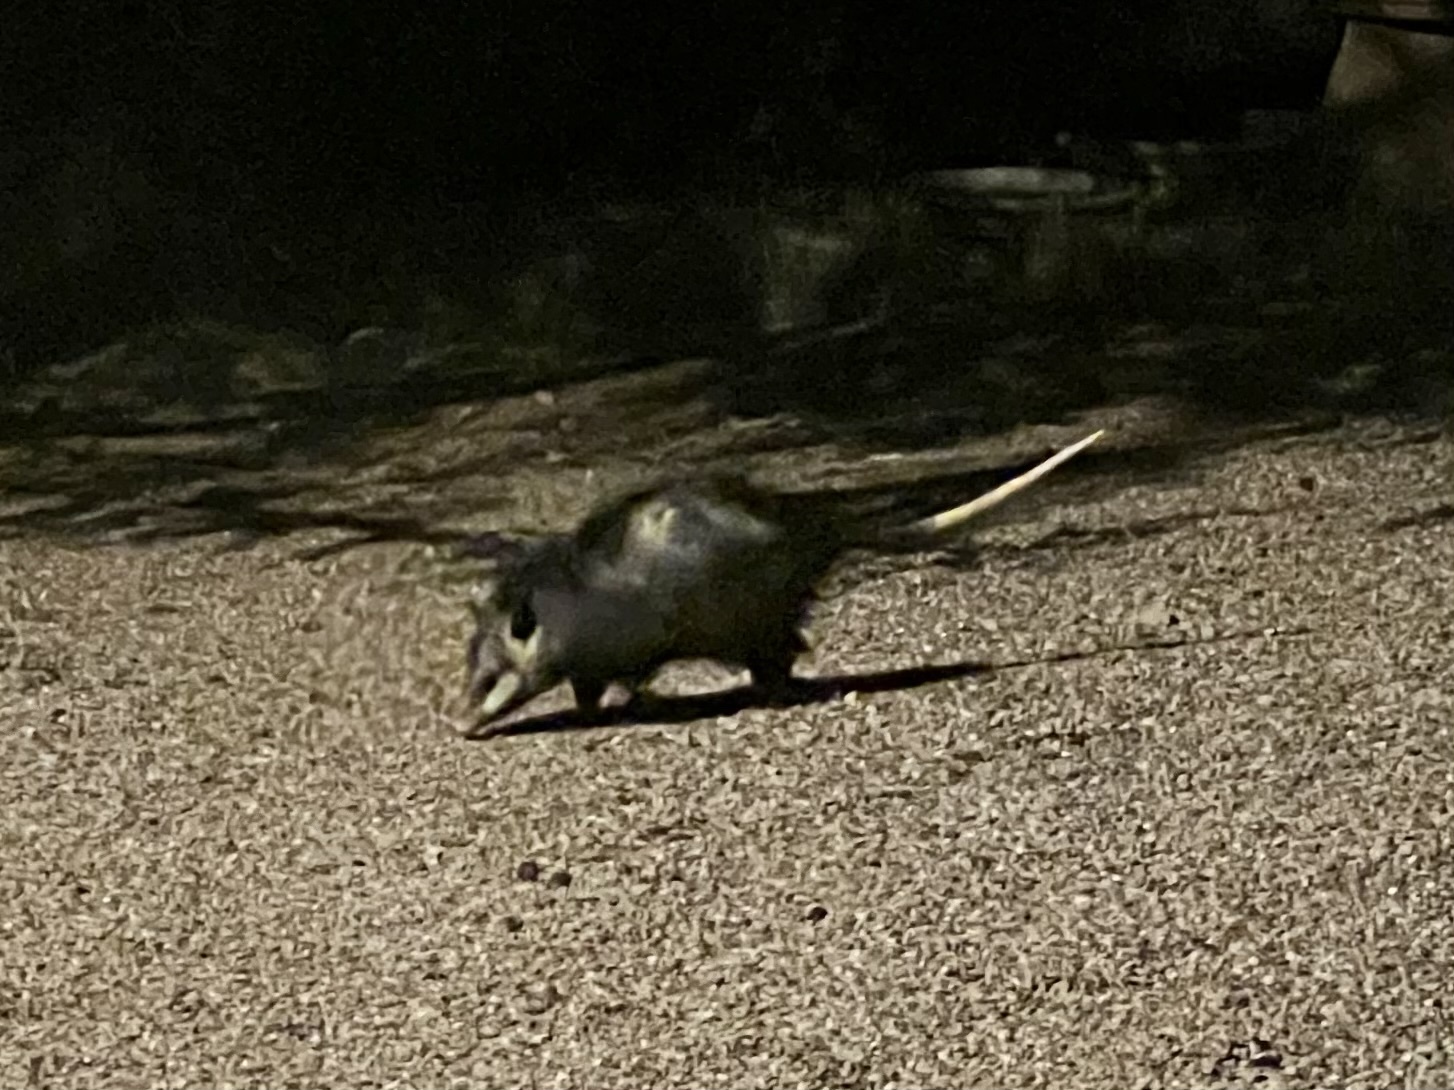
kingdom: Animalia
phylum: Chordata
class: Mammalia
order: Didelphimorphia
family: Didelphidae
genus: Didelphis
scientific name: Didelphis virginiana
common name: Virginia opossum
